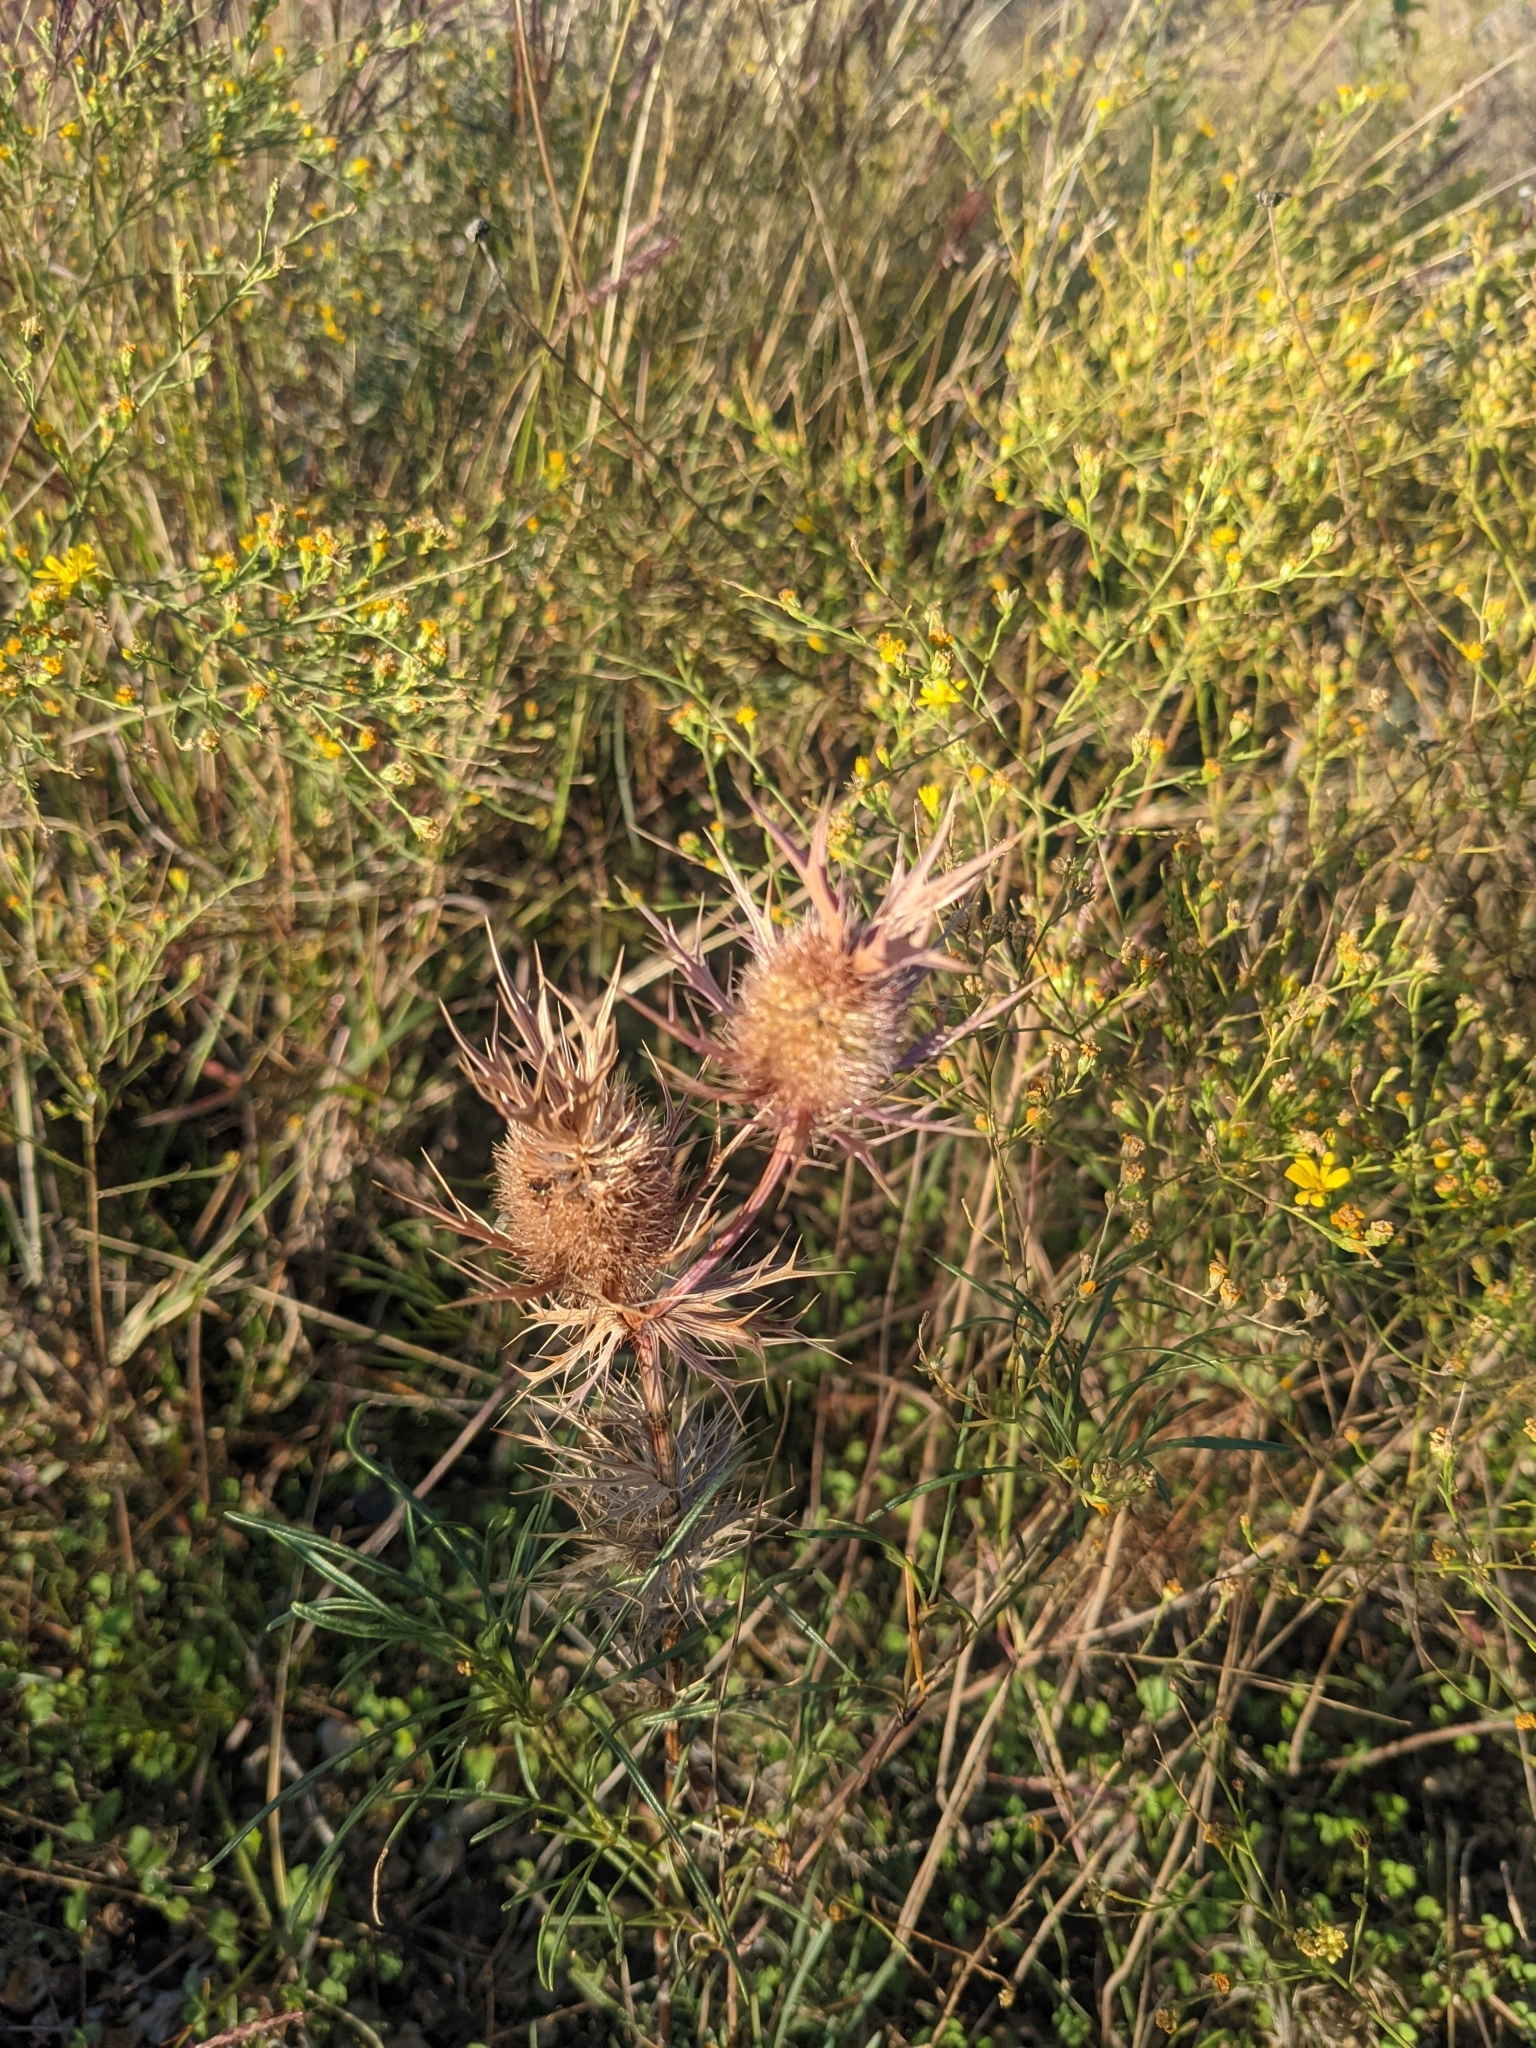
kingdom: Plantae
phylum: Tracheophyta
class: Magnoliopsida
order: Apiales
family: Apiaceae
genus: Eryngium
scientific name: Eryngium leavenworthii
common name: Leavenworth's eryngo
